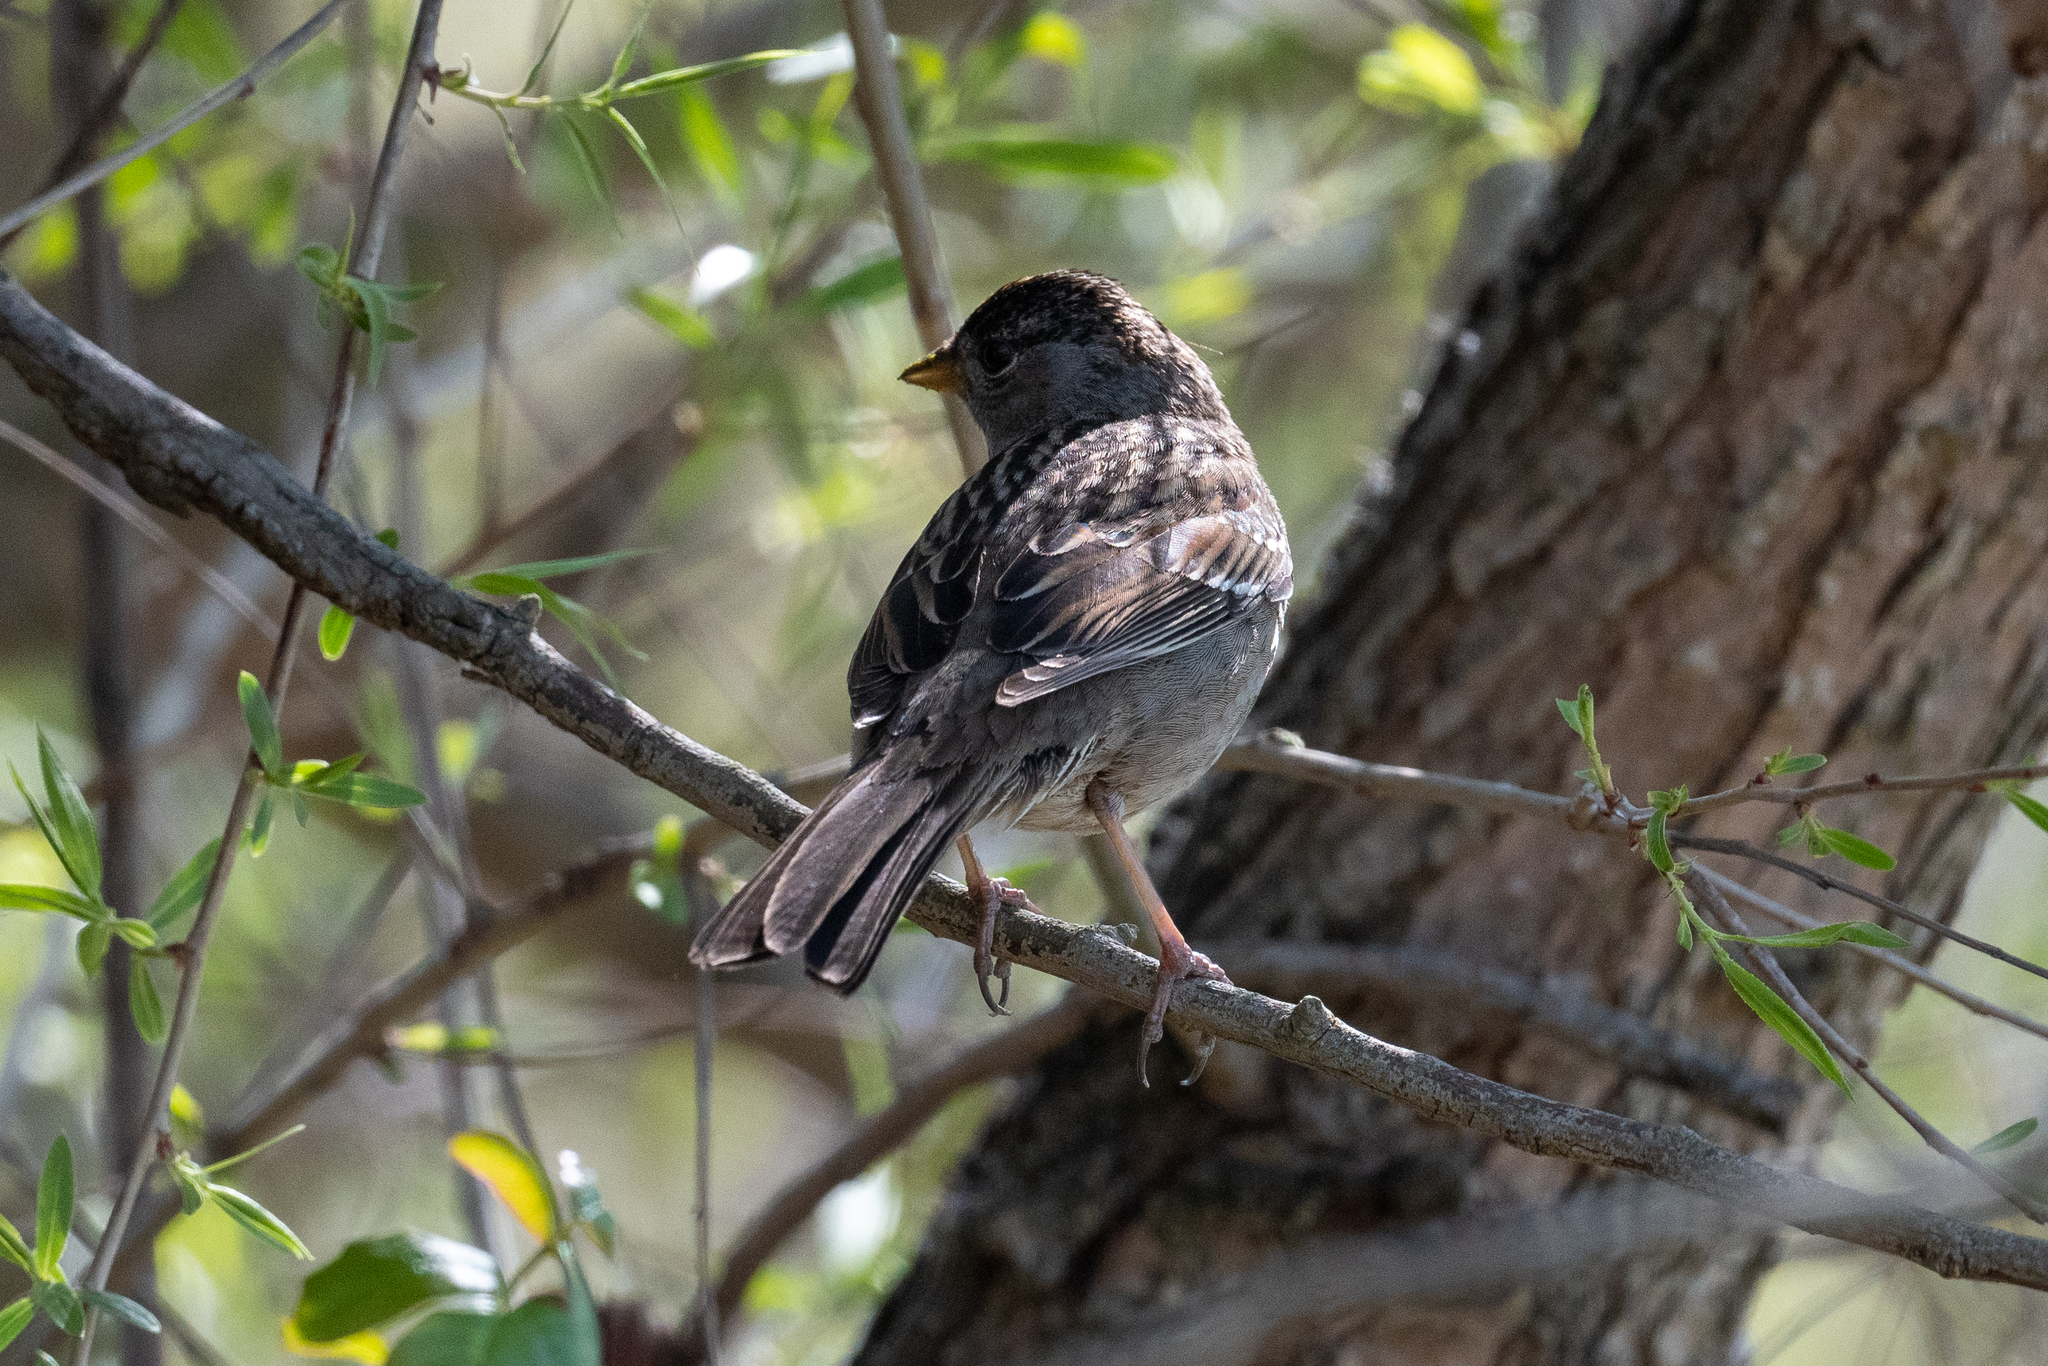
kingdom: Animalia
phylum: Chordata
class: Aves
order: Passeriformes
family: Passerellidae
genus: Zonotrichia
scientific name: Zonotrichia atricapilla
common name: Golden-crowned sparrow
